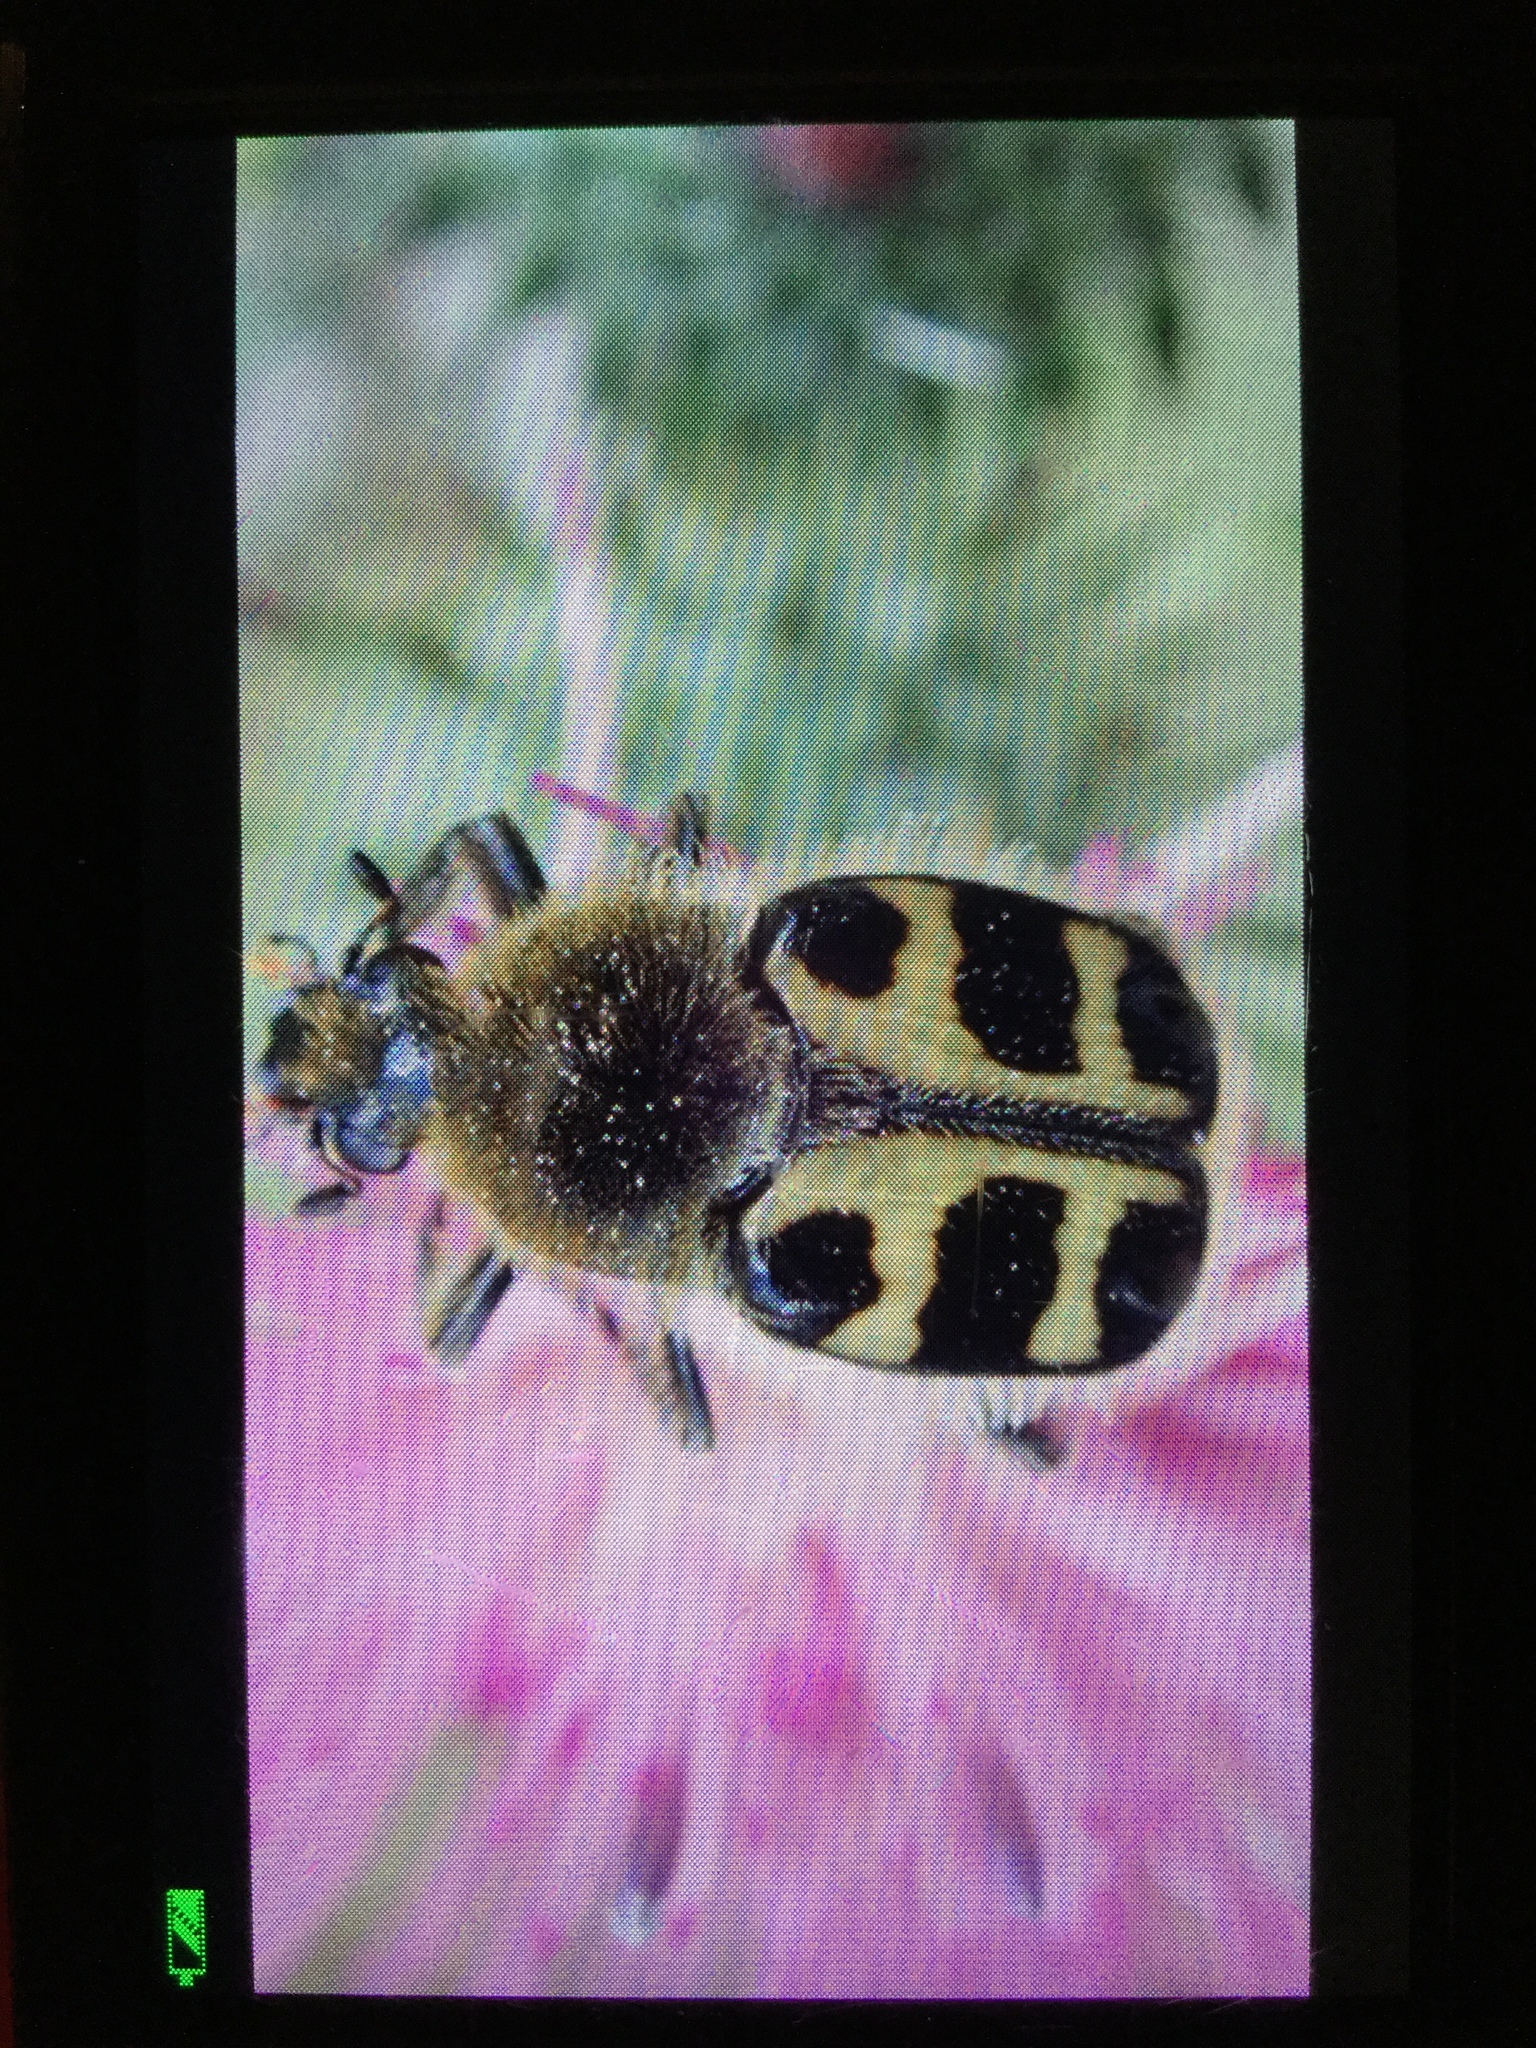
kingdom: Animalia
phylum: Arthropoda
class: Insecta
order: Coleoptera
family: Scarabaeidae
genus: Trichius
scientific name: Trichius gallicus
